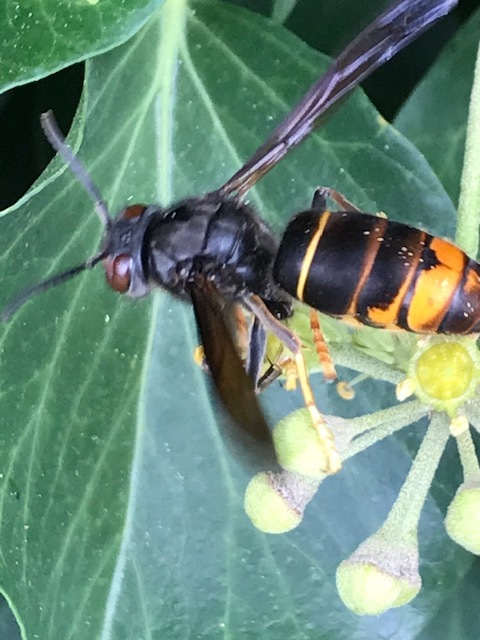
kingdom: Animalia
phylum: Arthropoda
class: Insecta
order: Hymenoptera
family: Vespidae
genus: Vespa
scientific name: Vespa velutina
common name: Asian hornet
